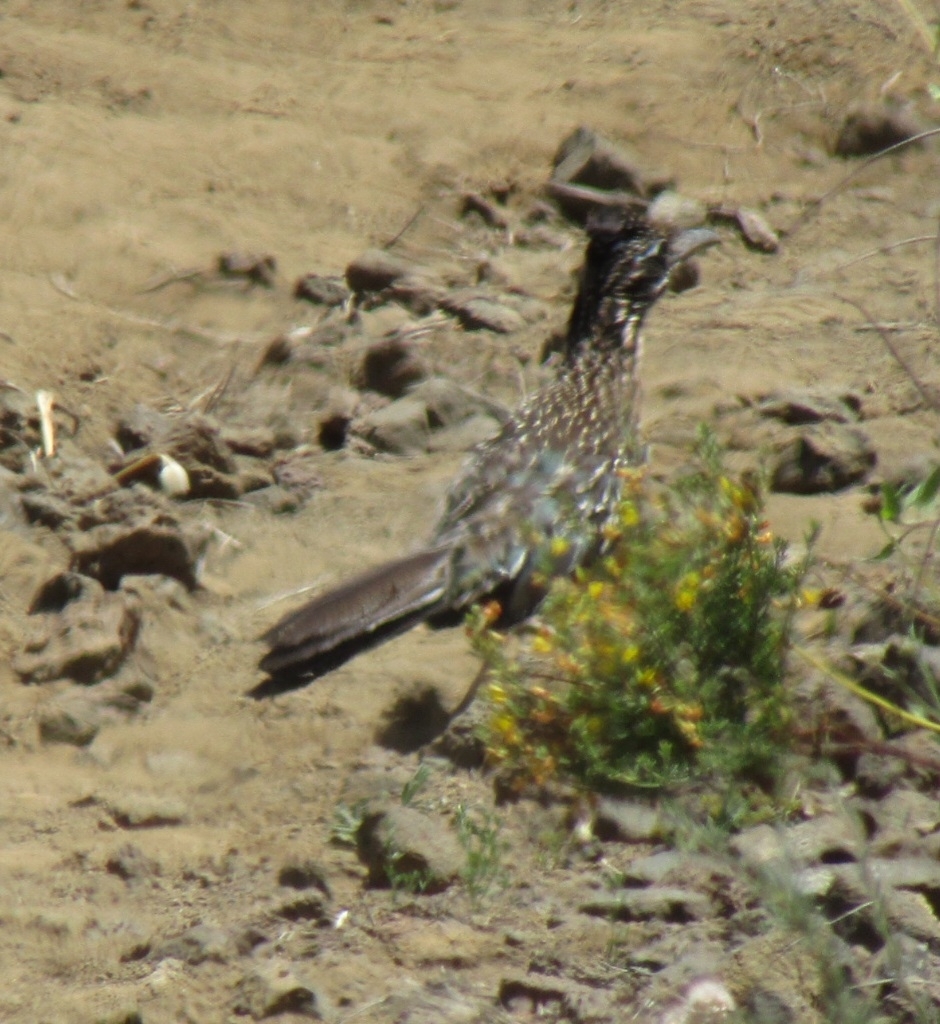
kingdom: Animalia
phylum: Chordata
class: Aves
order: Cuculiformes
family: Cuculidae
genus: Geococcyx
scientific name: Geococcyx californianus
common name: Greater roadrunner
